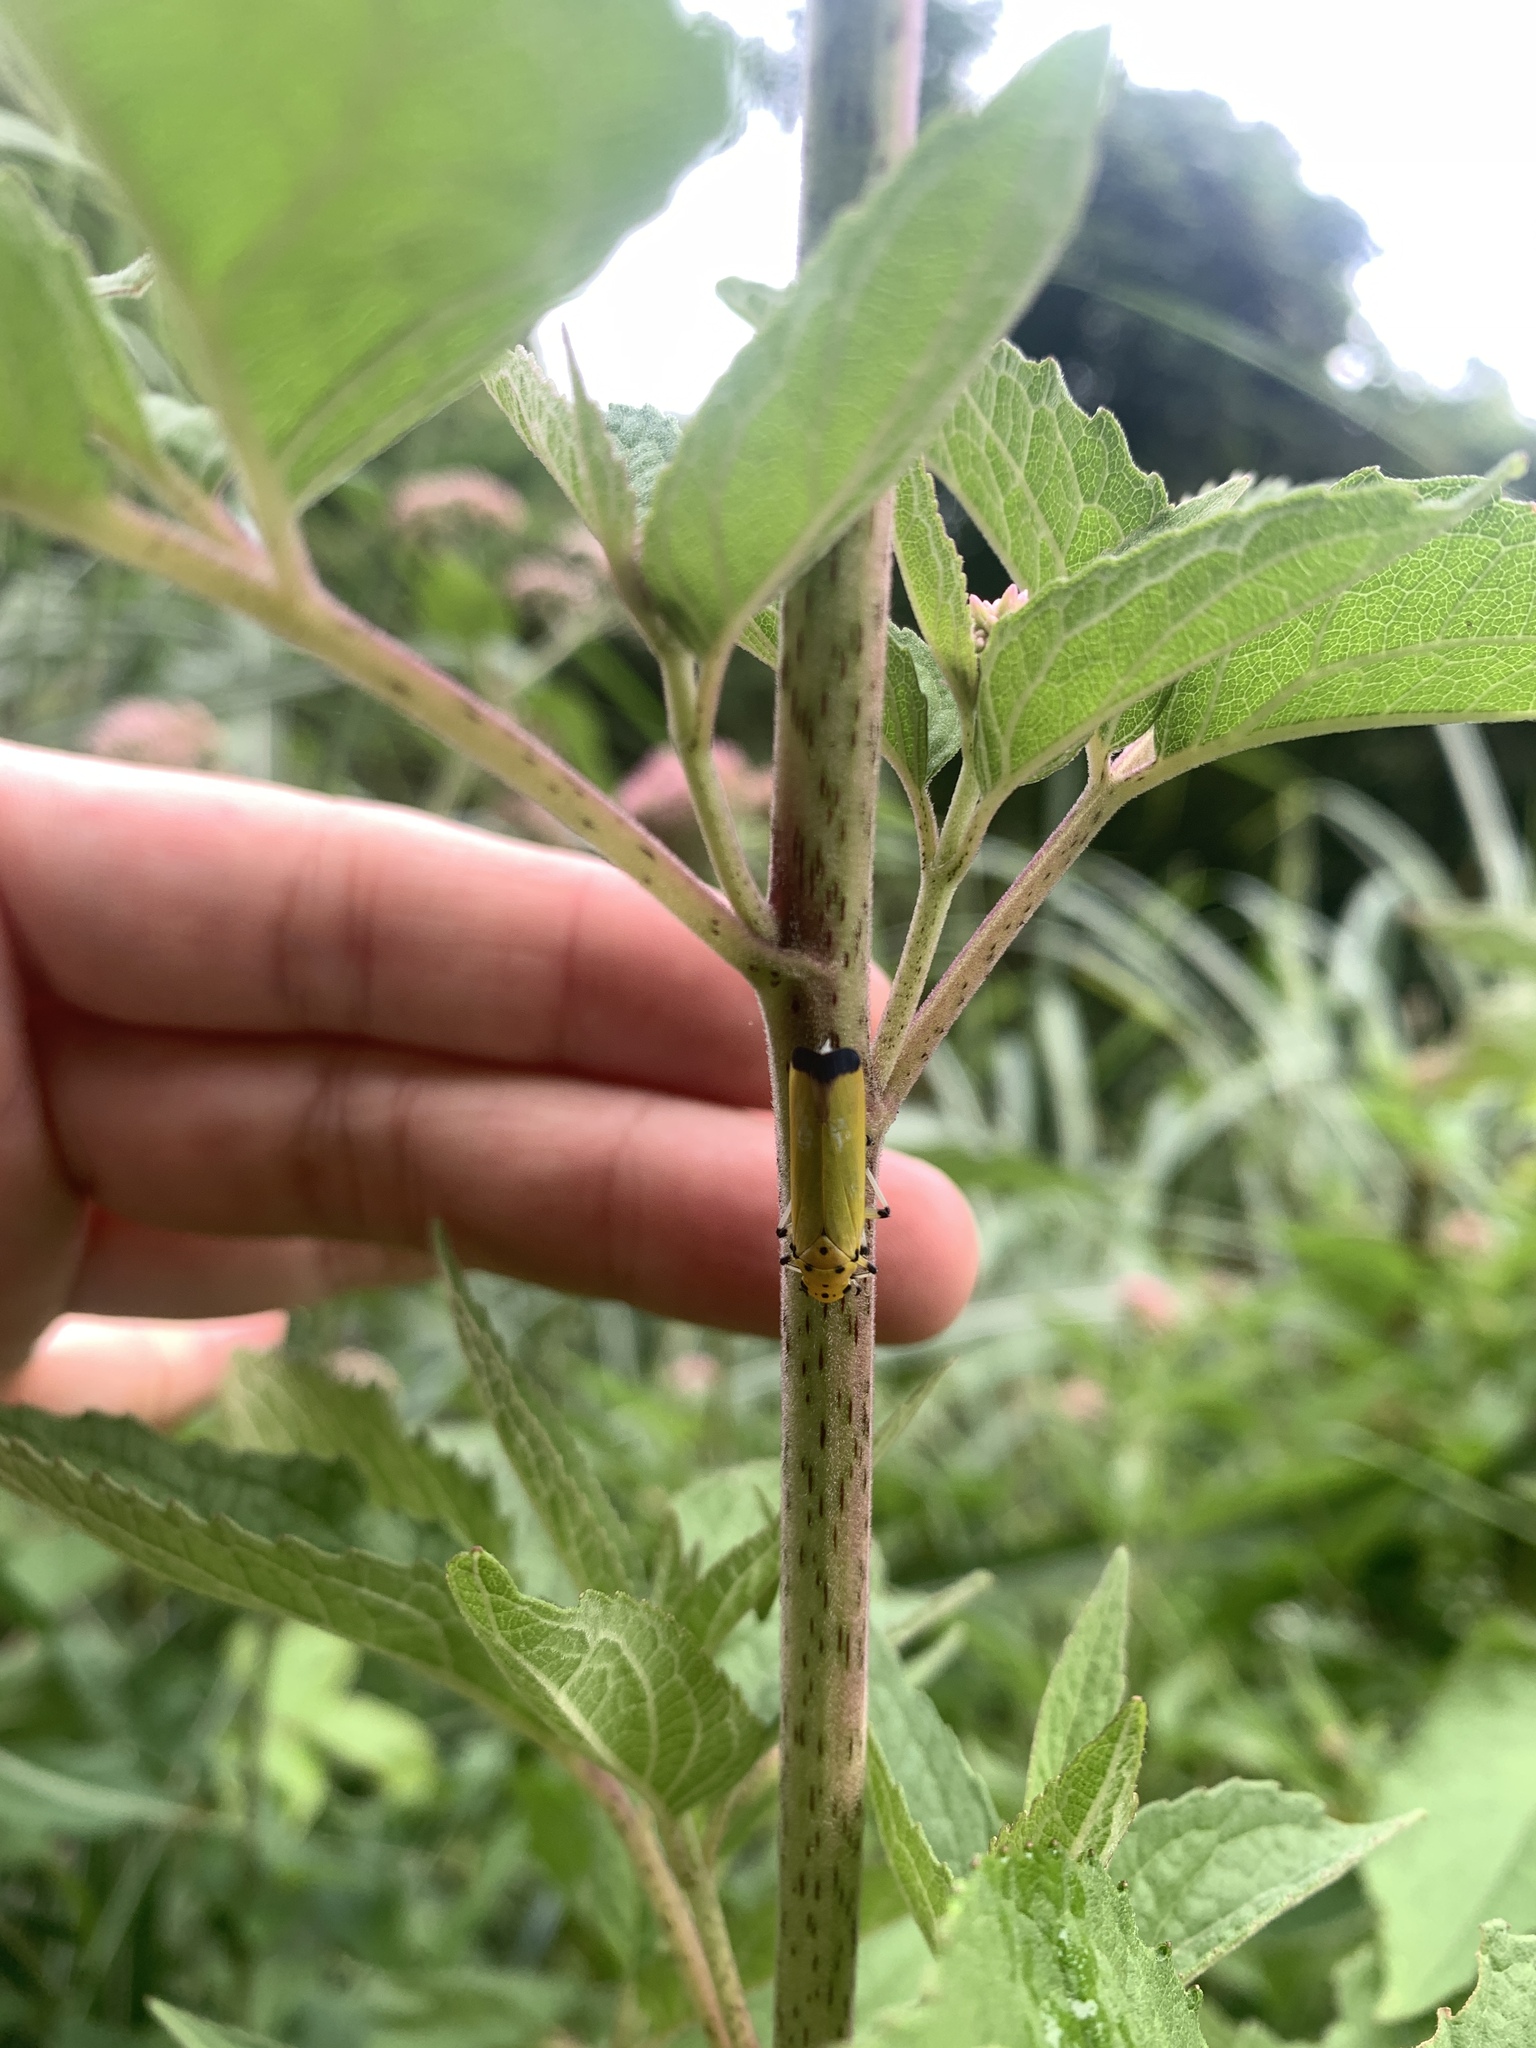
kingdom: Animalia
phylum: Arthropoda
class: Insecta
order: Hemiptera
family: Cicadellidae
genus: Bothrogonia
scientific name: Bothrogonia ferruginea
